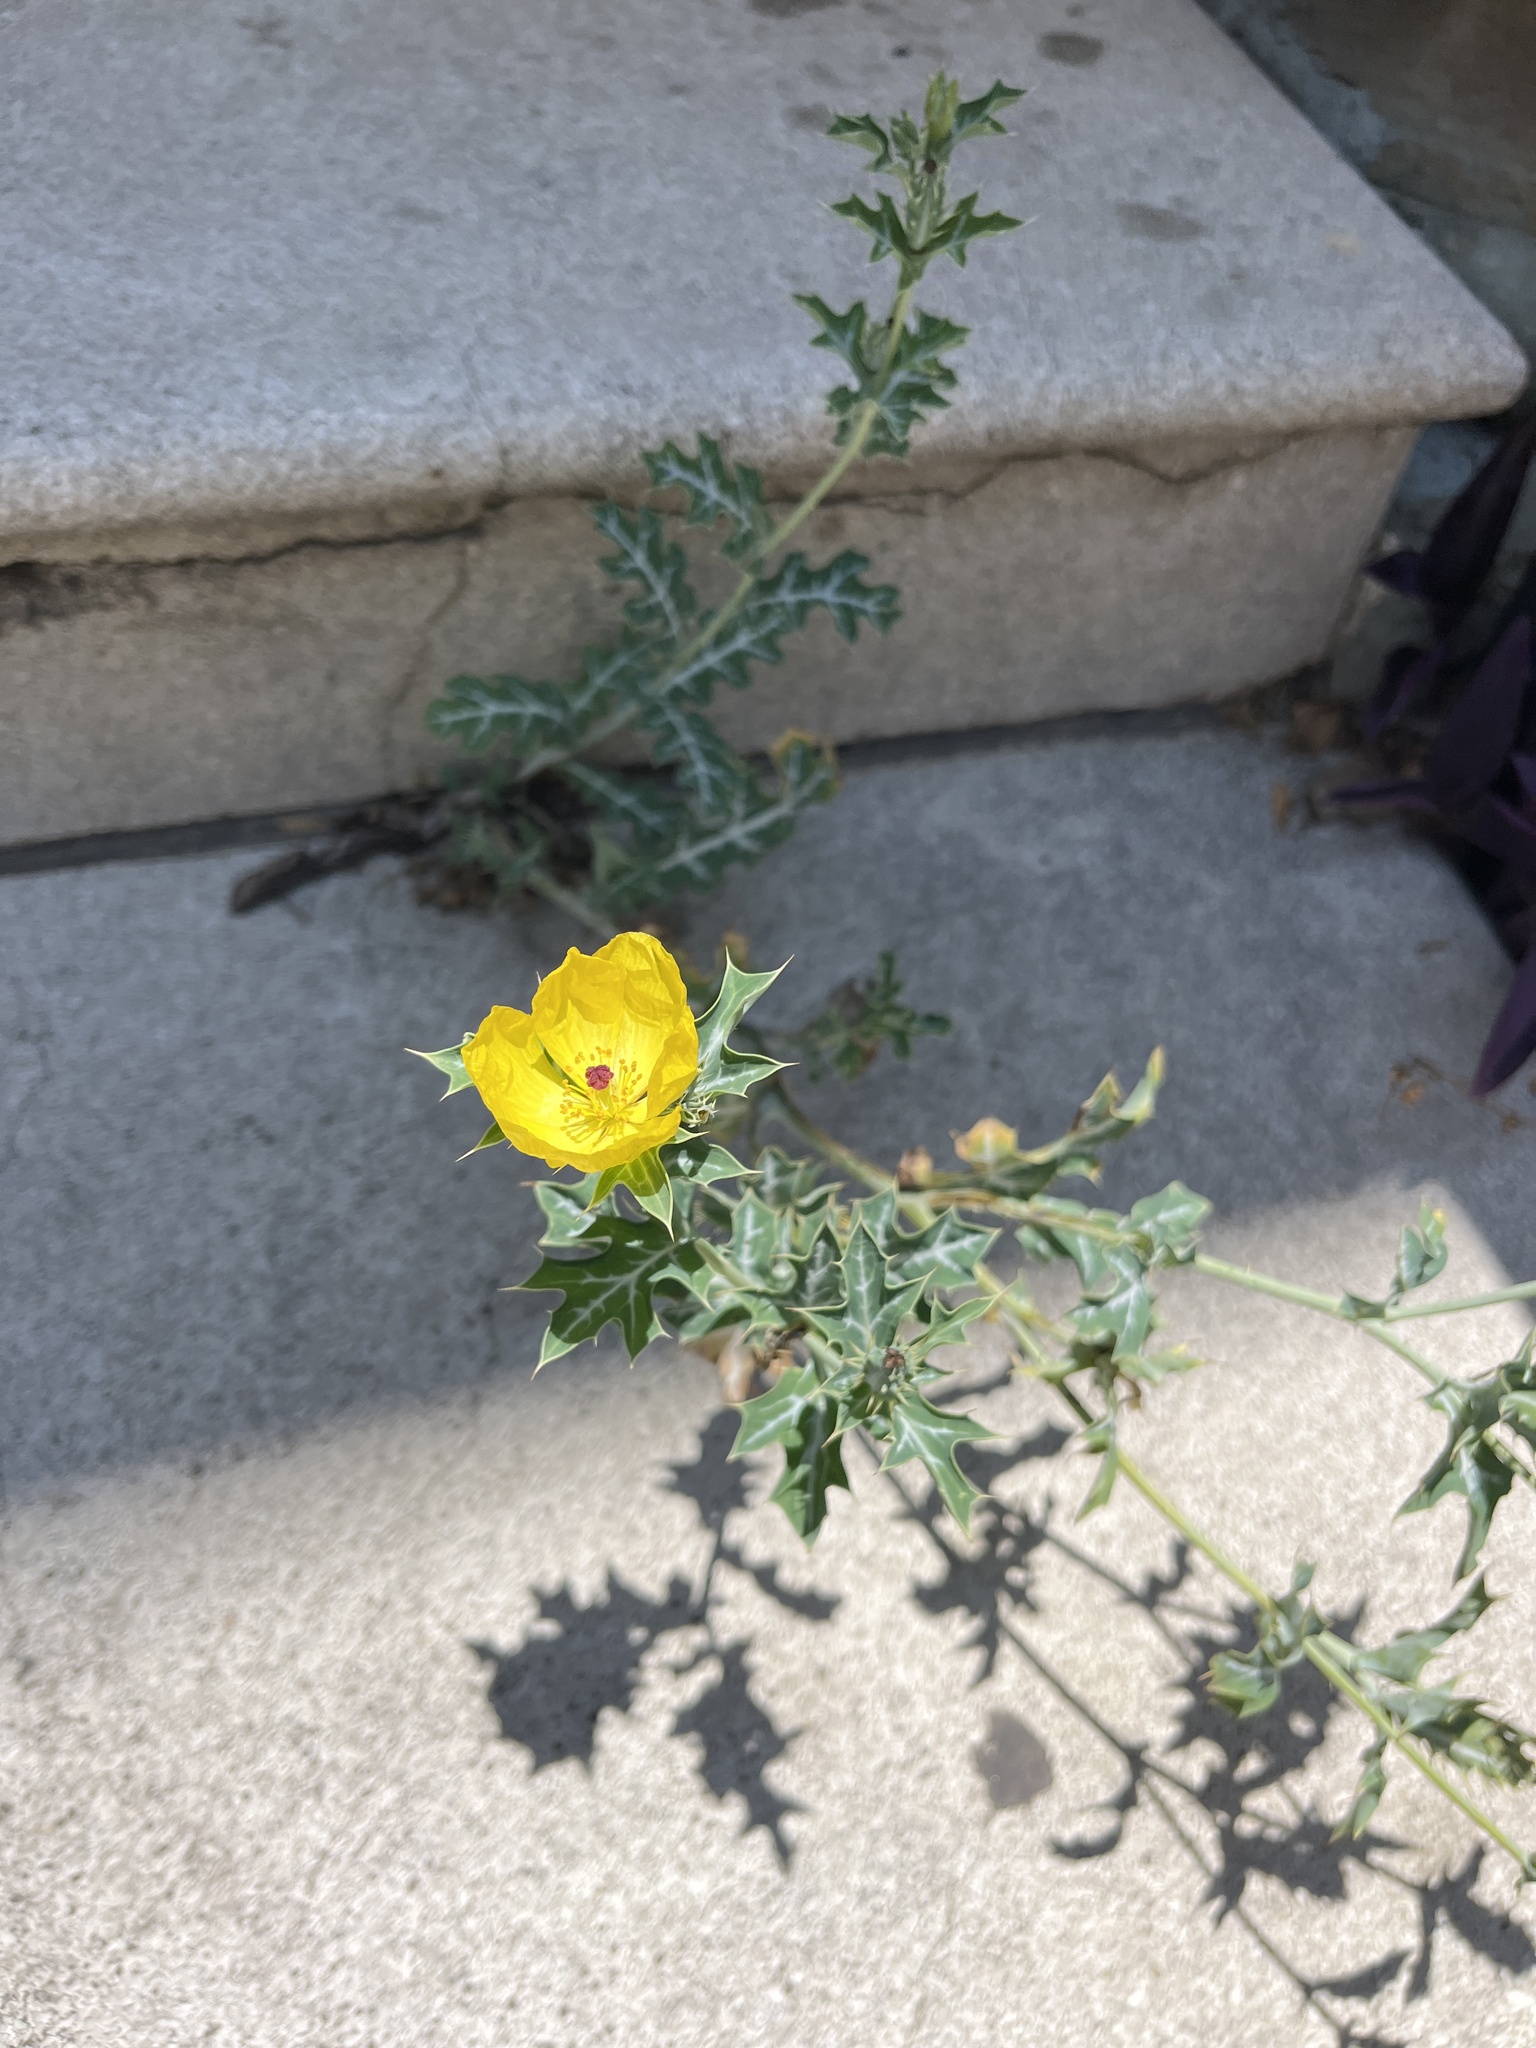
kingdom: Plantae
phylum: Tracheophyta
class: Magnoliopsida
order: Ranunculales
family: Papaveraceae
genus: Argemone
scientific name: Argemone mexicana
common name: Mexican poppy
